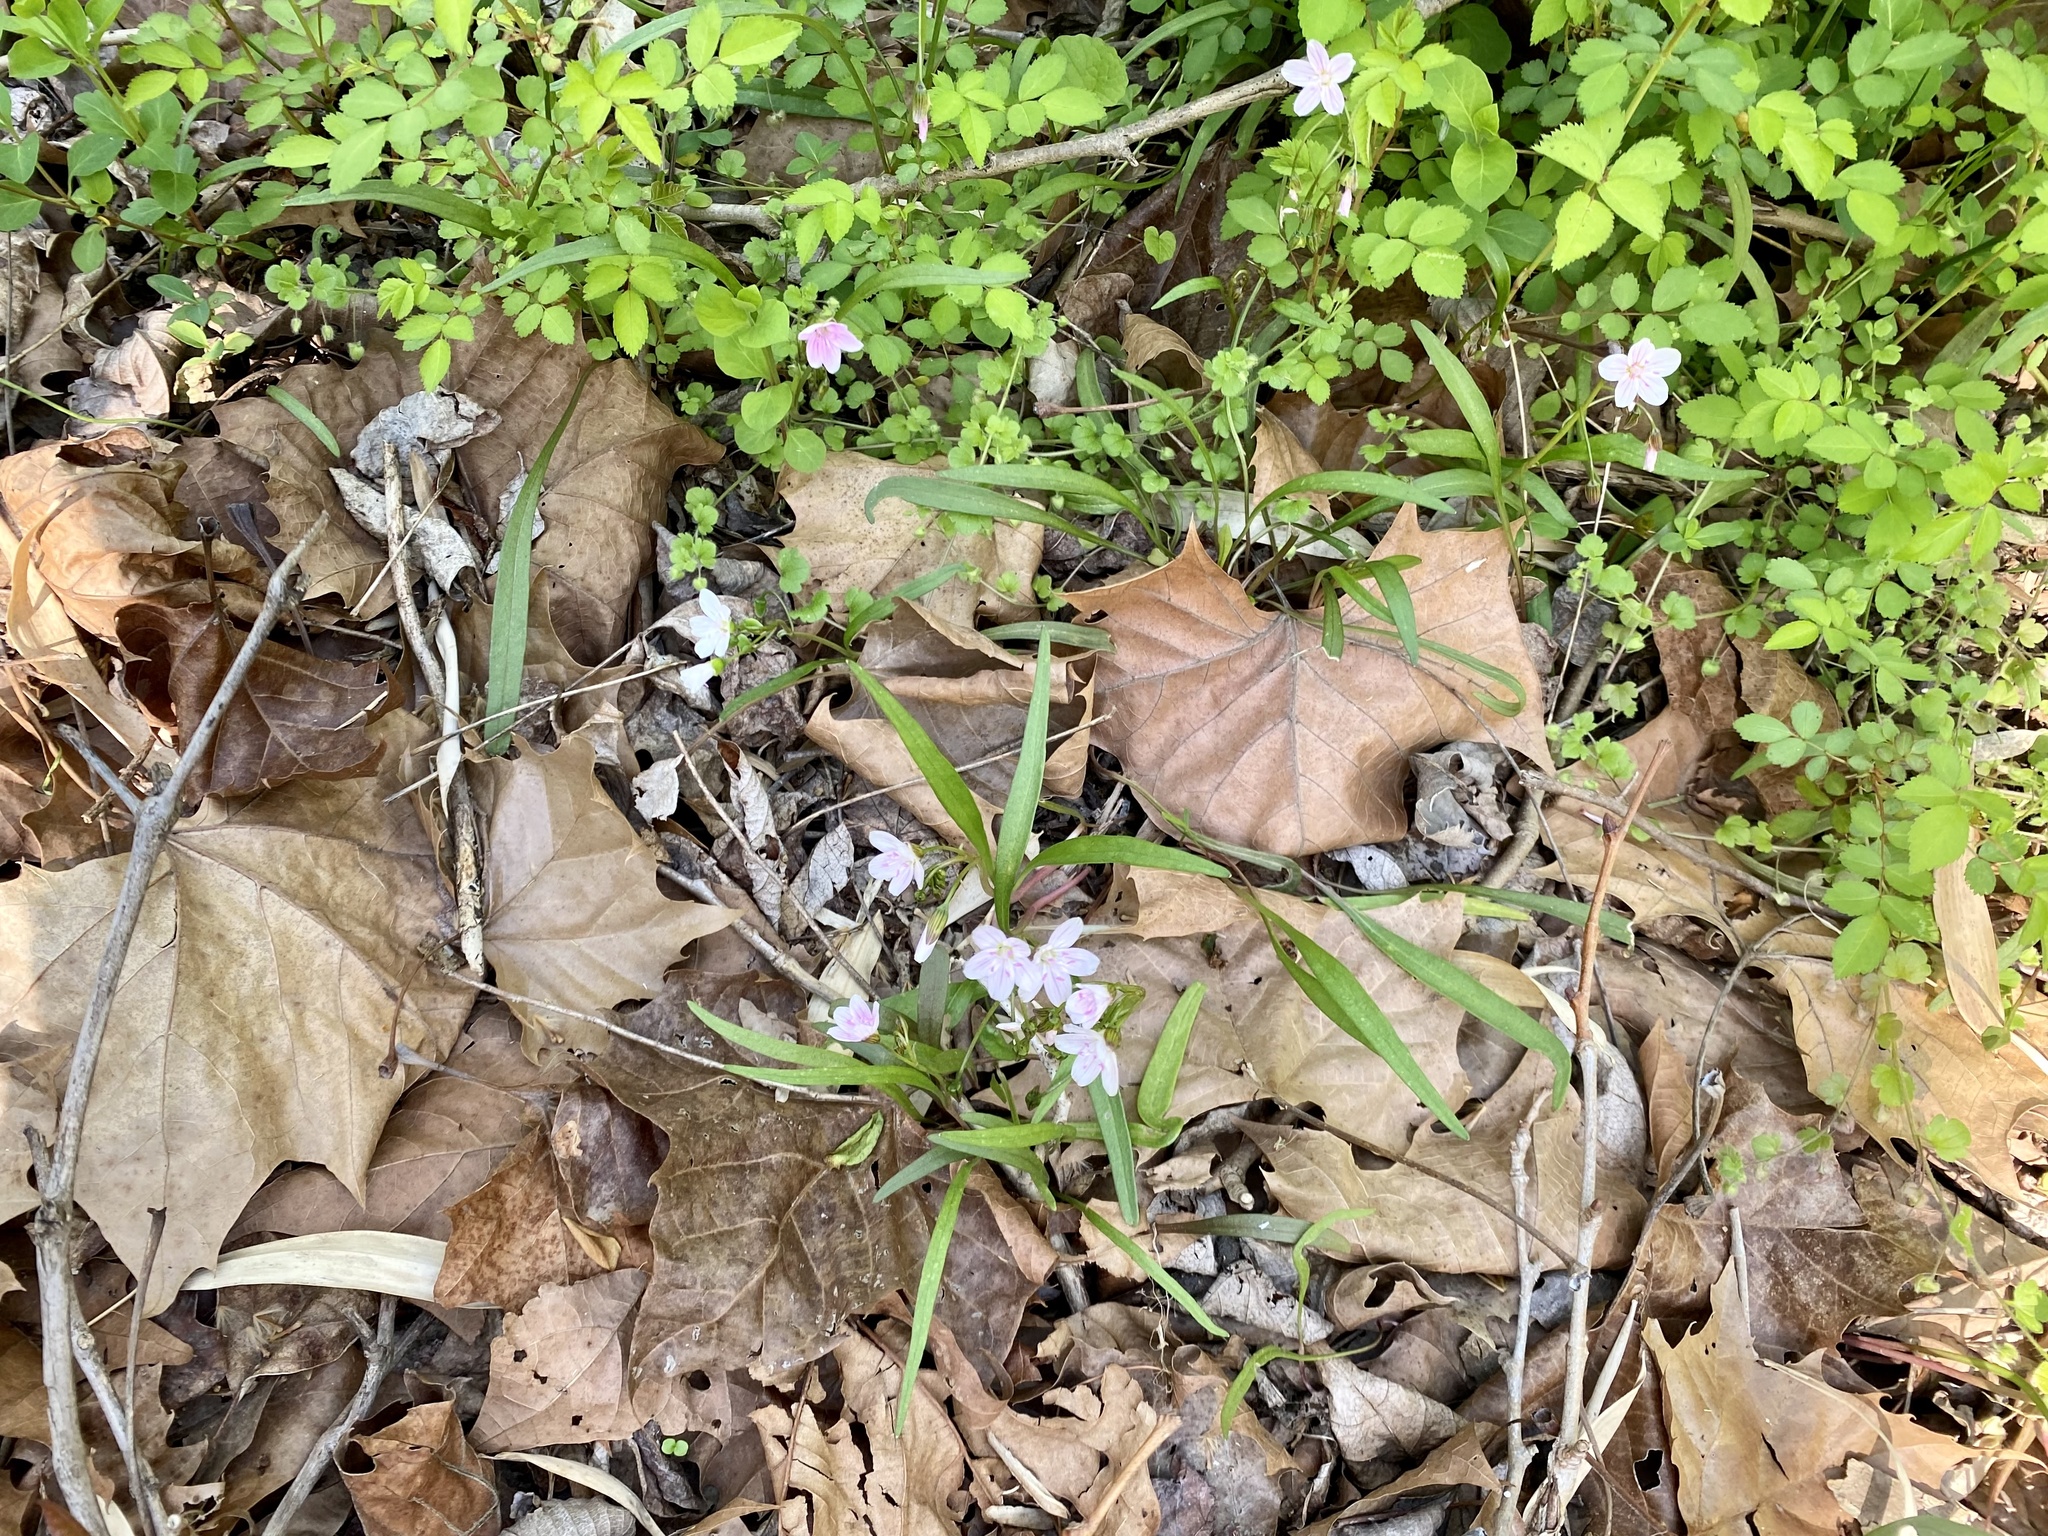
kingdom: Plantae
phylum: Tracheophyta
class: Magnoliopsida
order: Caryophyllales
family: Montiaceae
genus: Claytonia
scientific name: Claytonia virginica
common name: Virginia springbeauty
